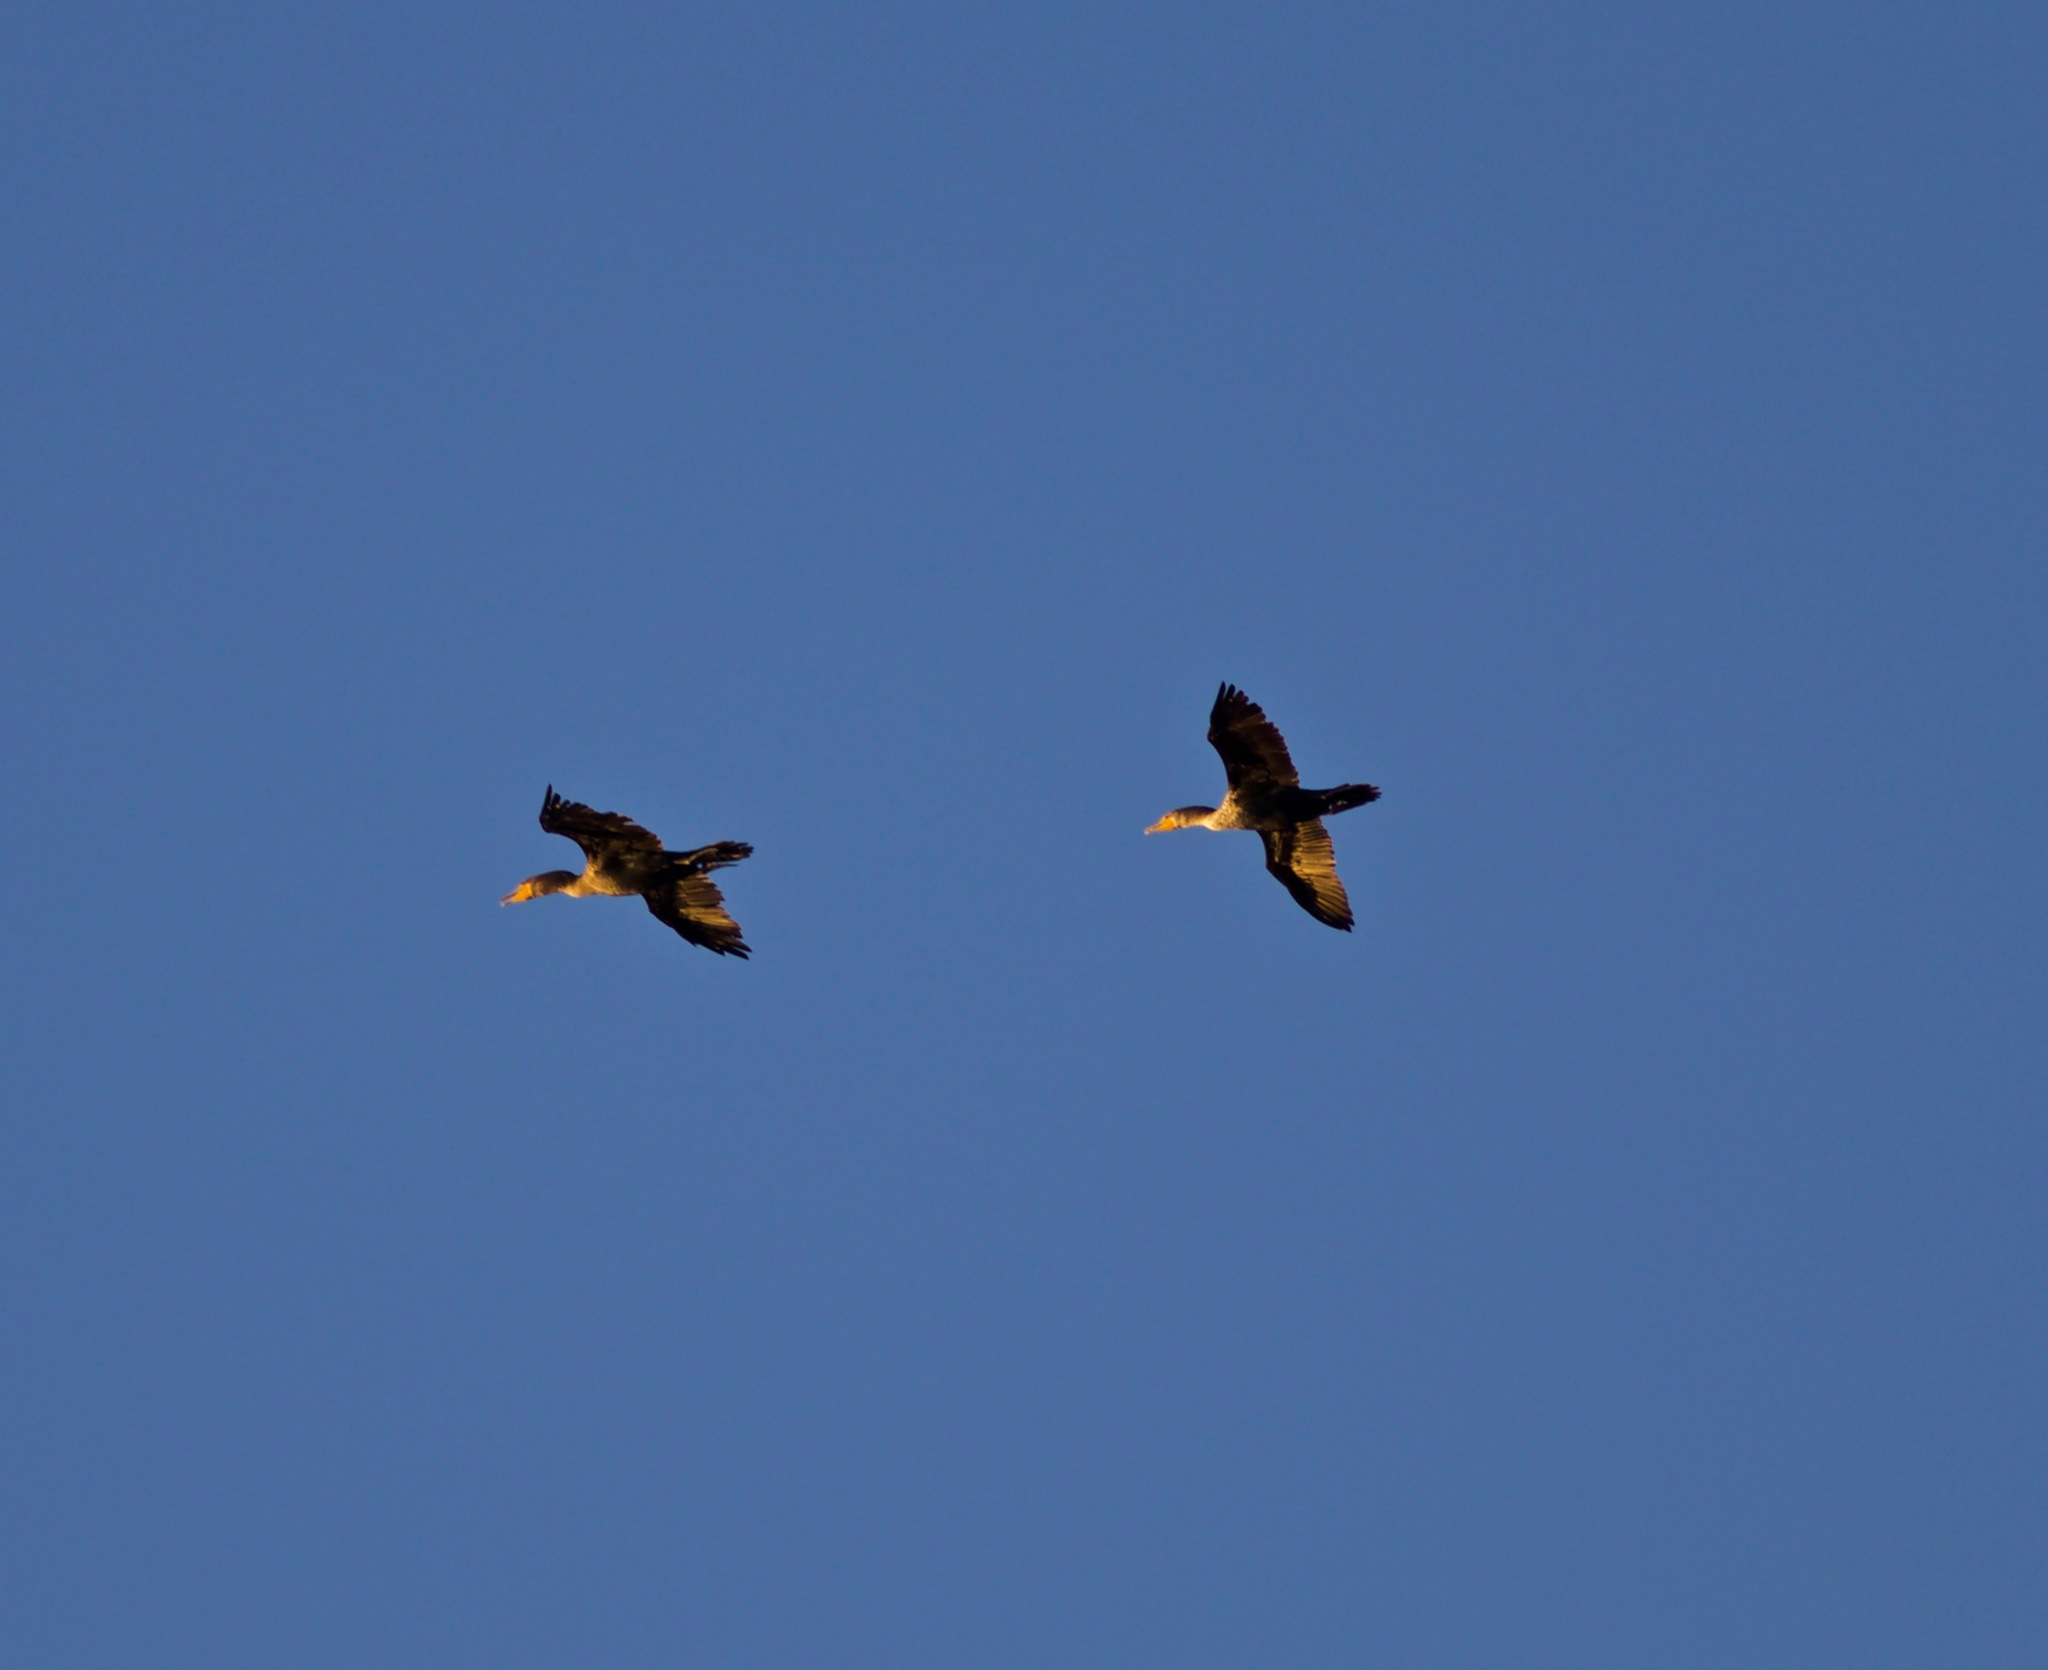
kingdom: Animalia
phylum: Chordata
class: Aves
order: Suliformes
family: Phalacrocoracidae
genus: Phalacrocorax
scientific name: Phalacrocorax auritus
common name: Double-crested cormorant
